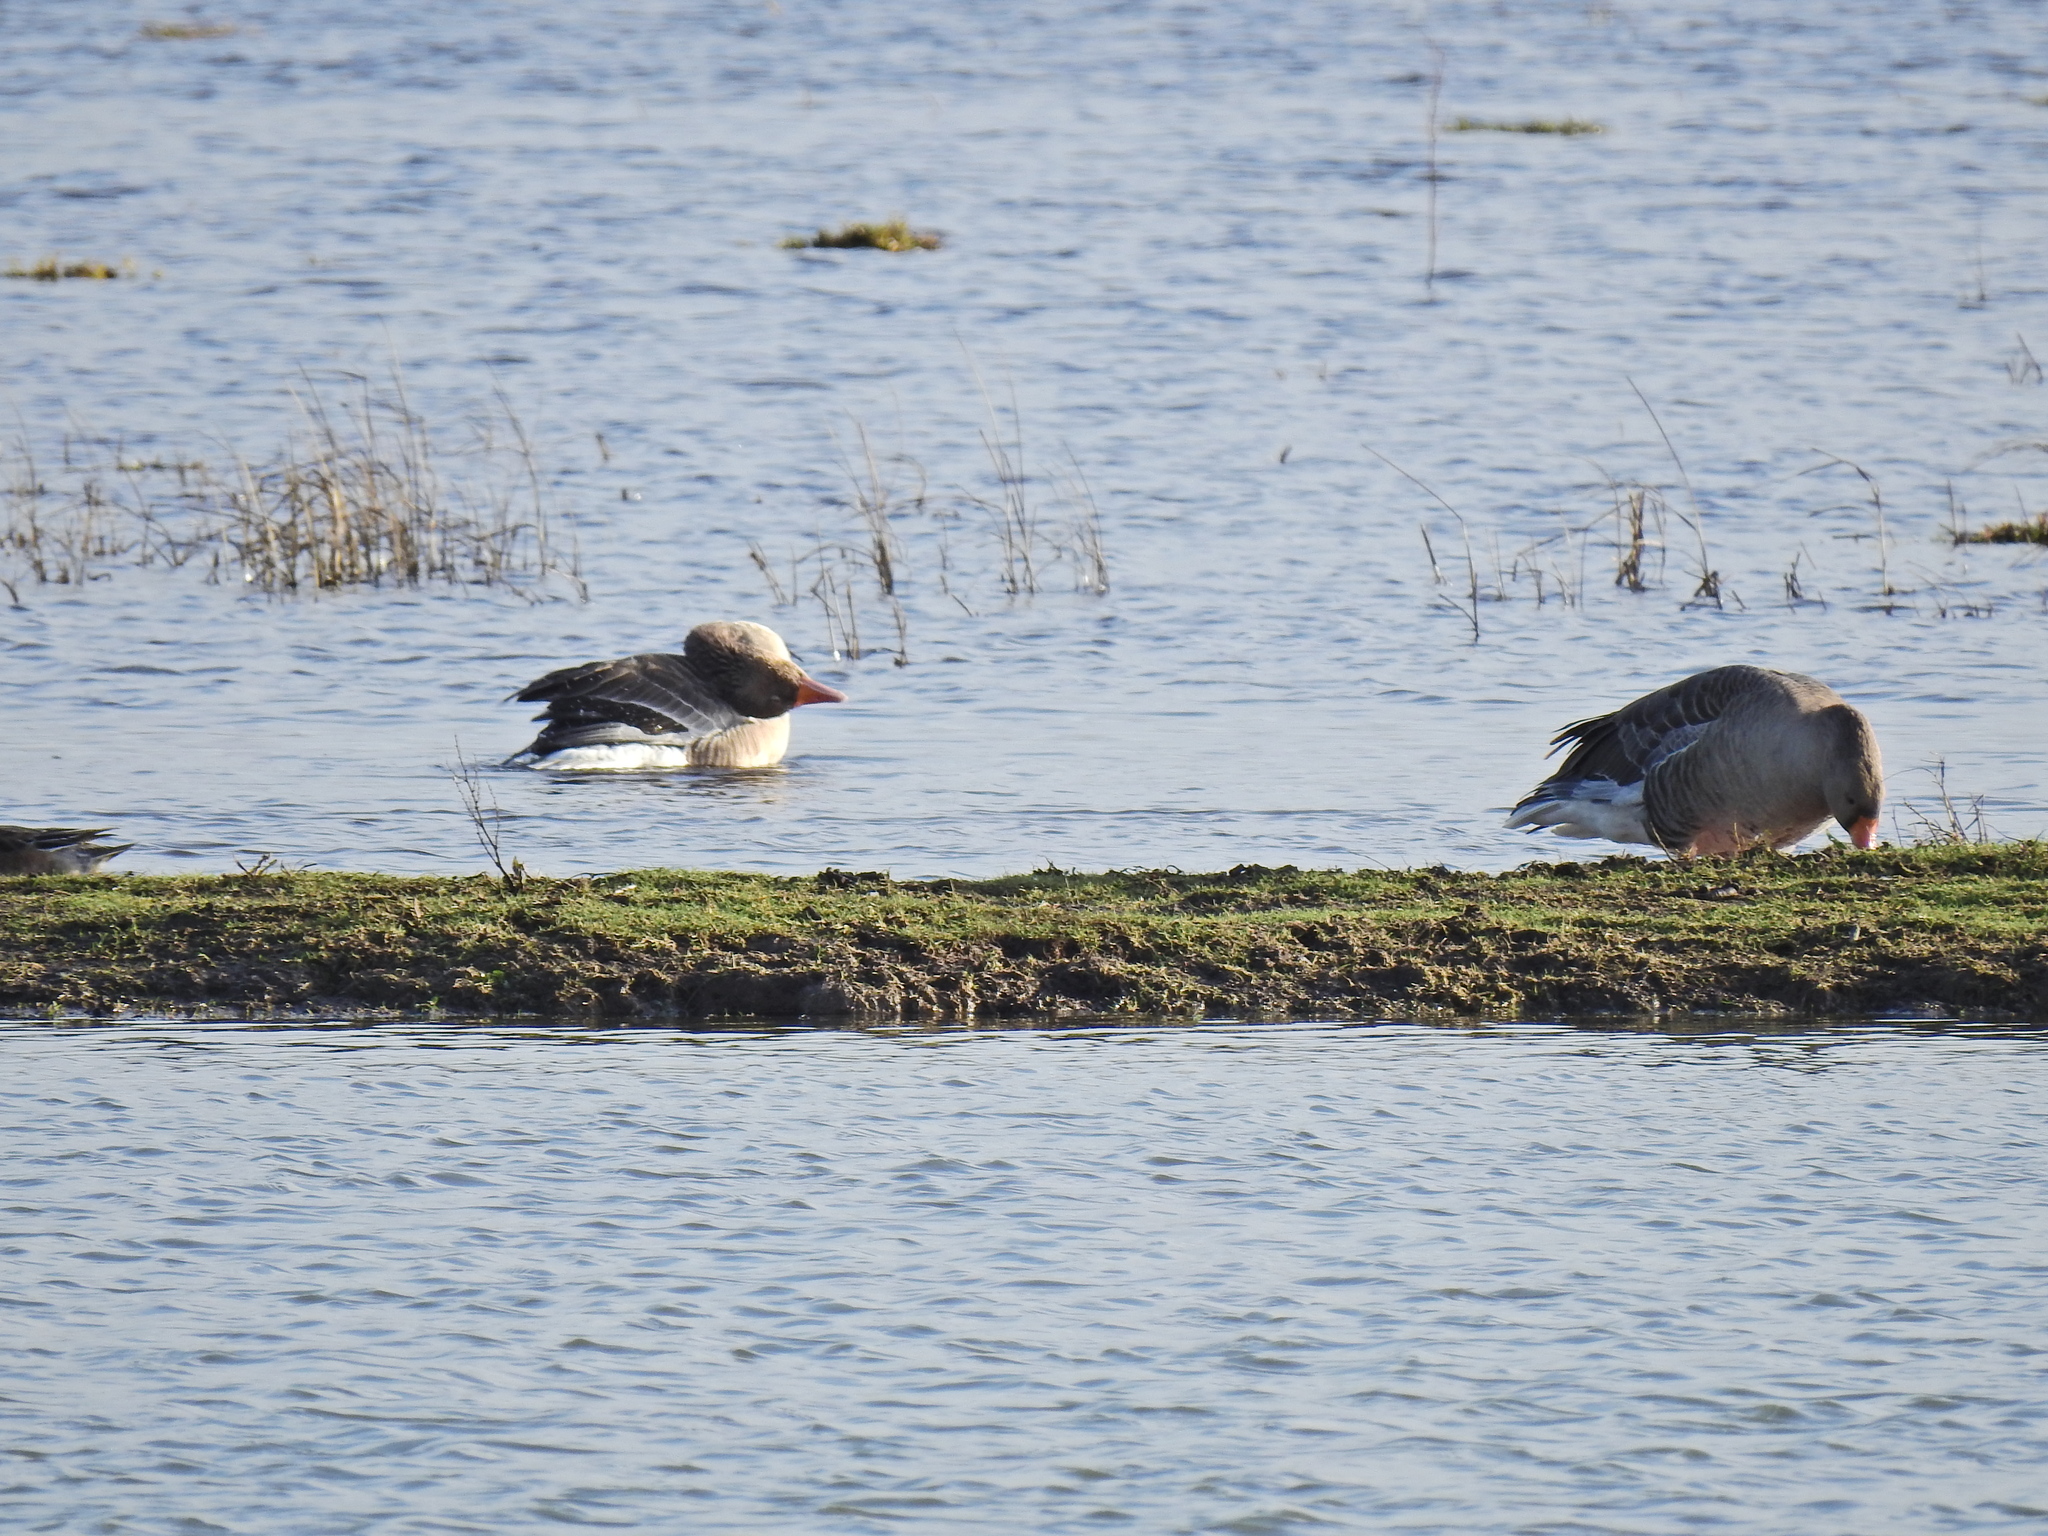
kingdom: Animalia
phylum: Chordata
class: Aves
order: Anseriformes
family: Anatidae
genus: Anser
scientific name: Anser anser
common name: Greylag goose
